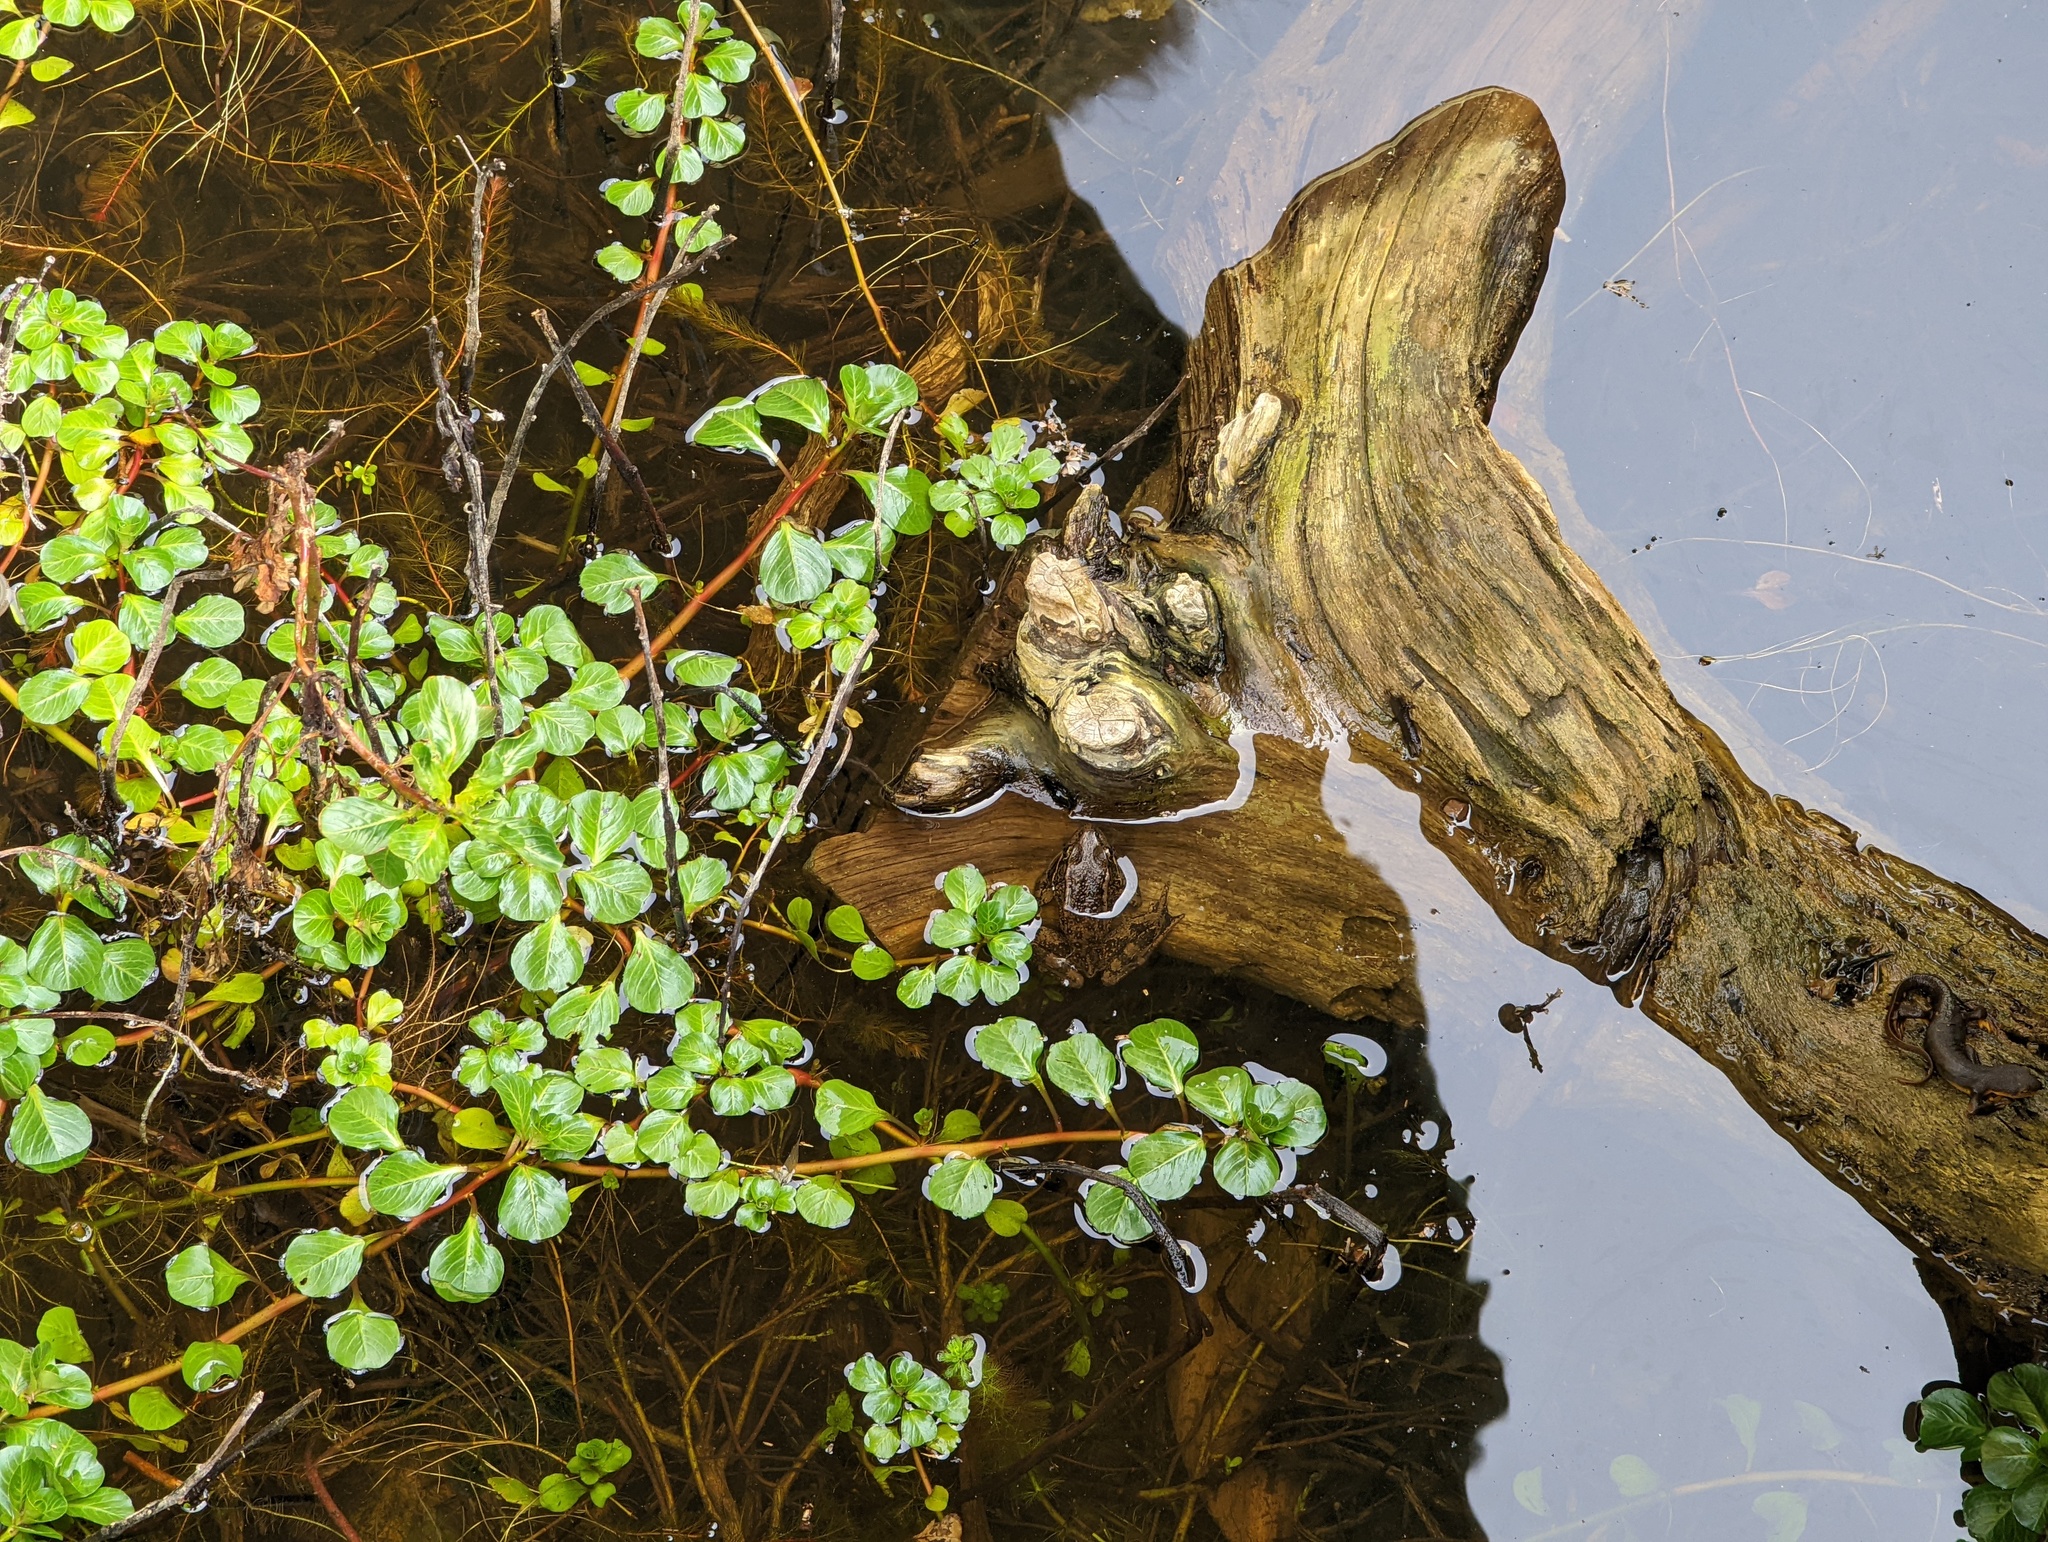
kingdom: Animalia
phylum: Chordata
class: Amphibia
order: Anura
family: Ranidae
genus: Rana
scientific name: Rana draytonii
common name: California red-legged frog
